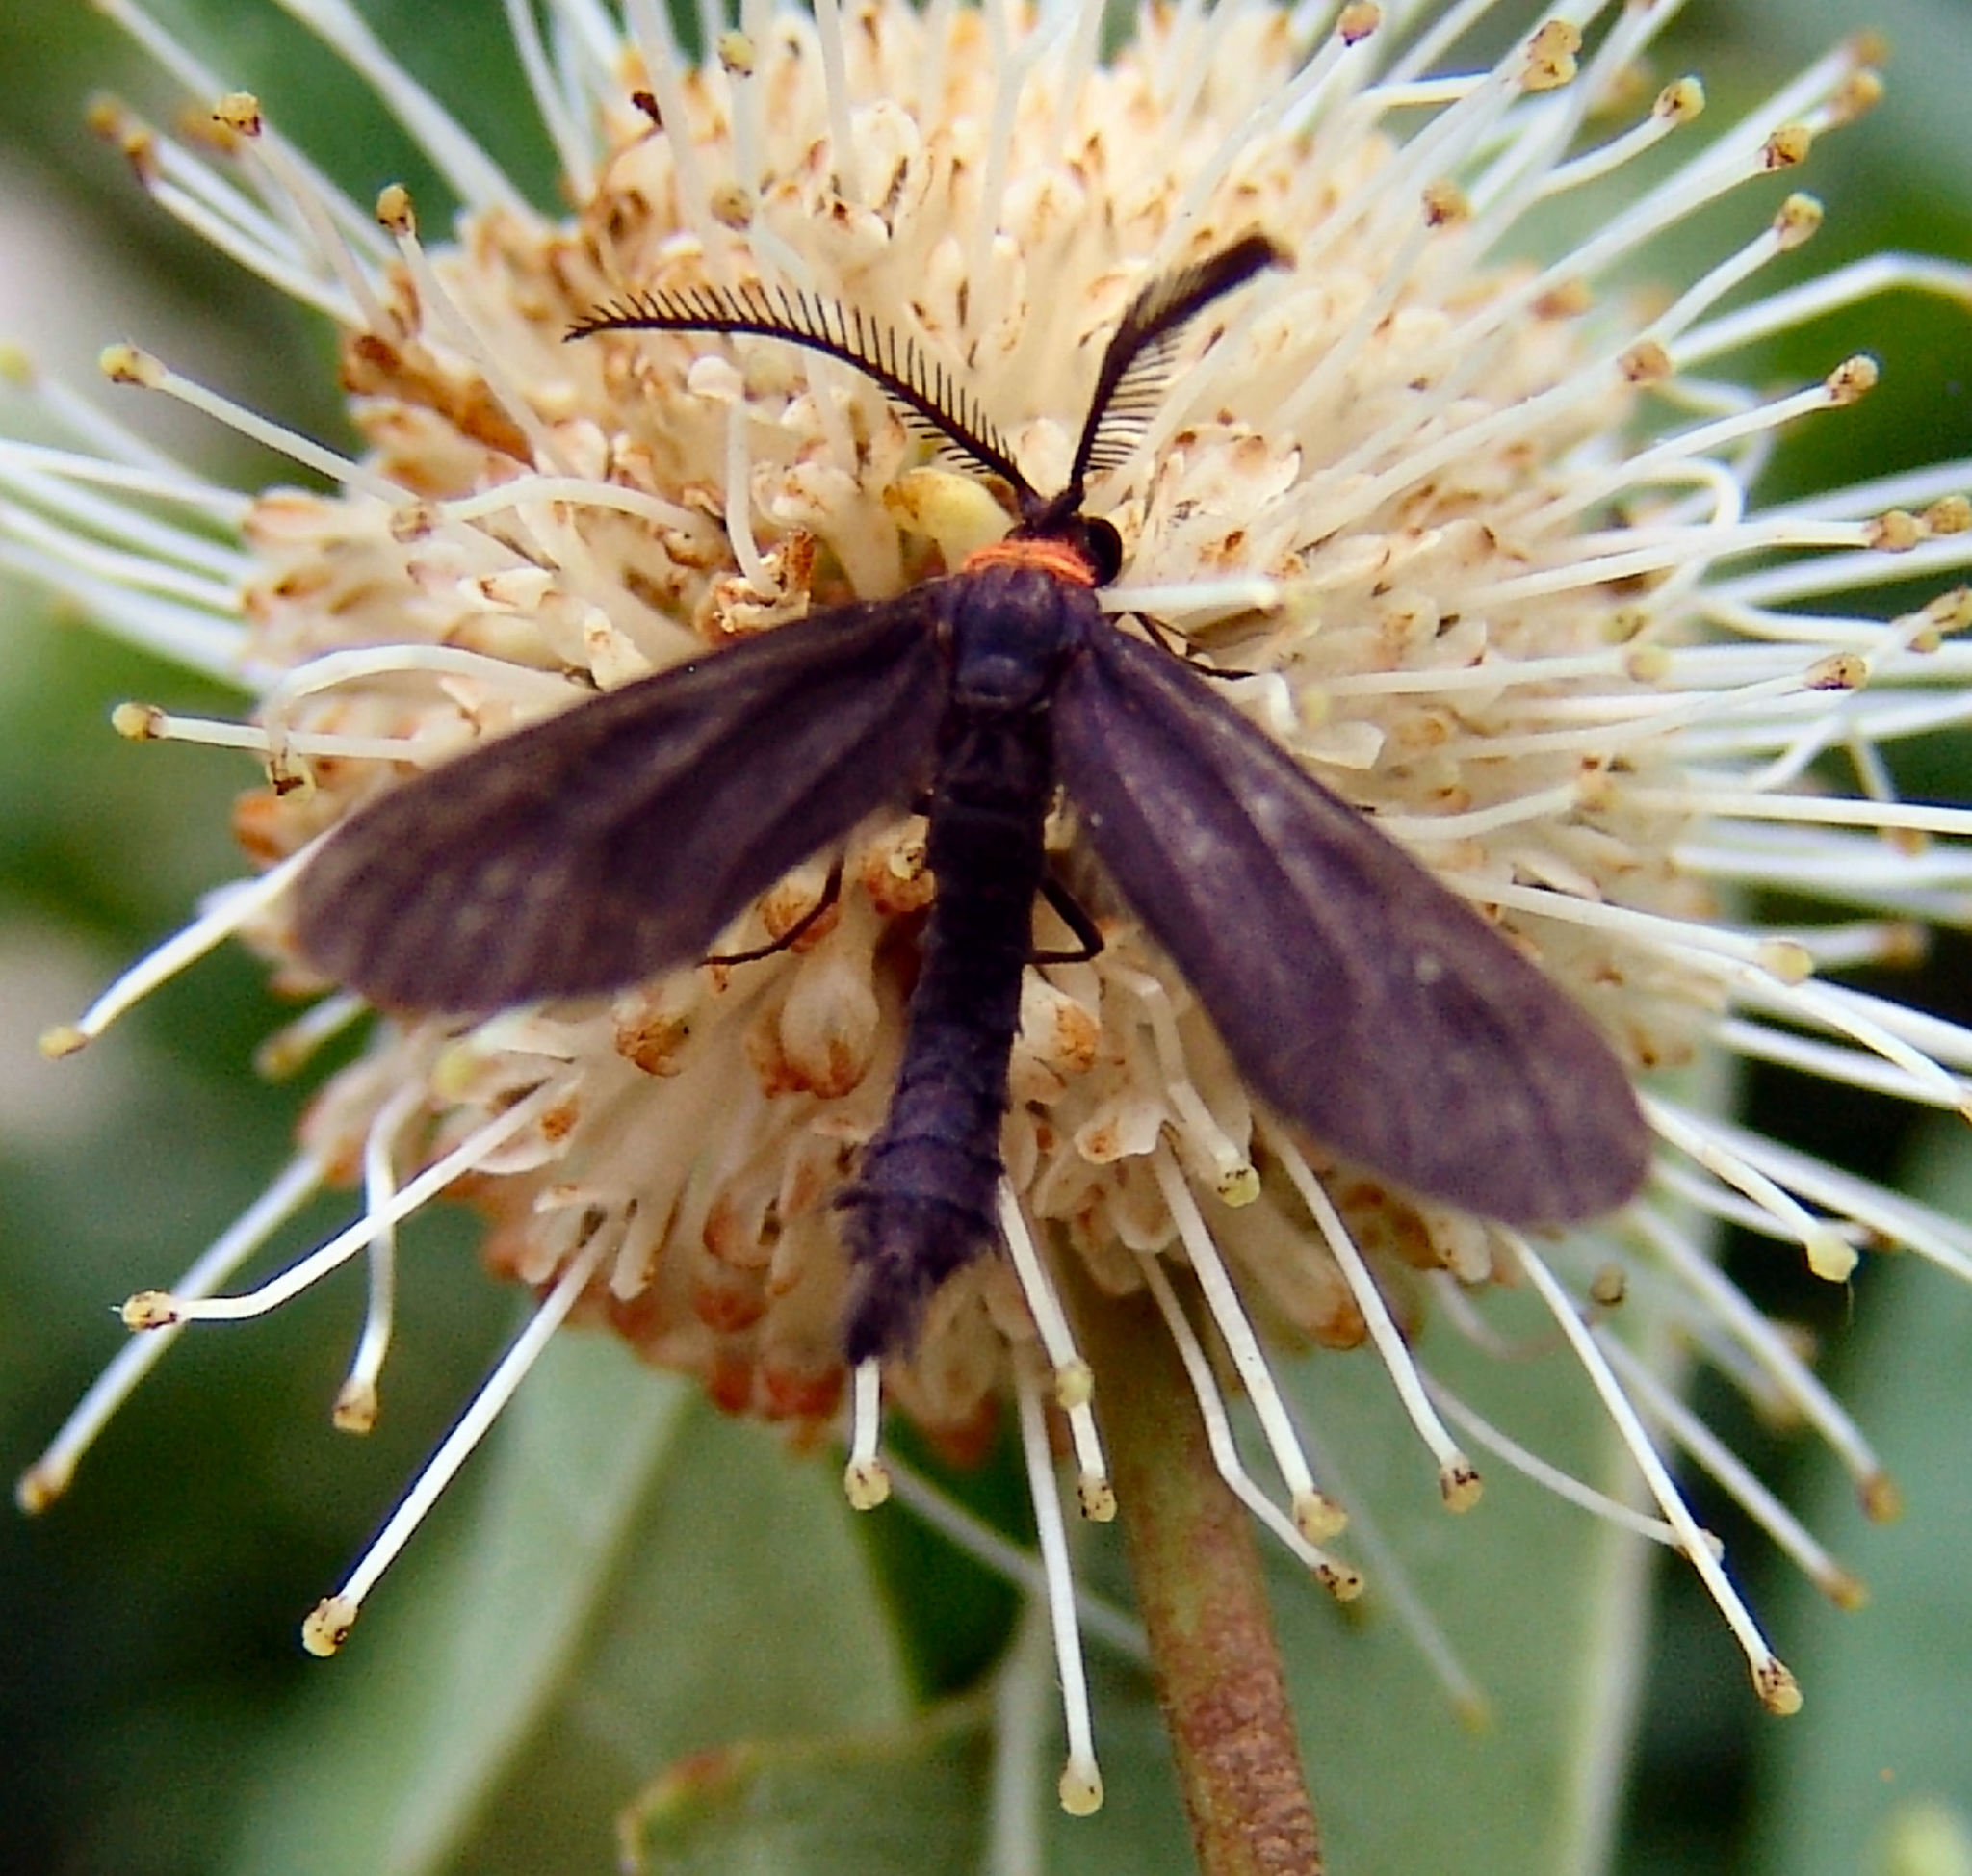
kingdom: Animalia
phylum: Arthropoda
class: Insecta
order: Lepidoptera
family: Zygaenidae
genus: Harrisina
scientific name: Harrisina americana
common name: Grapeleaf skeletonizer moth
